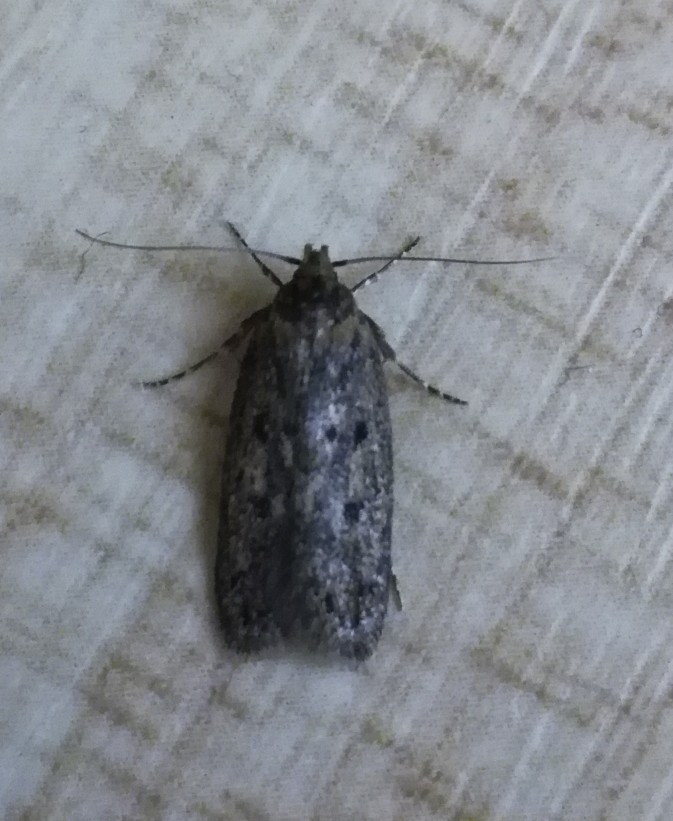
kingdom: Animalia
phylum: Arthropoda
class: Insecta
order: Lepidoptera
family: Oecophoridae
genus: Hofmannophila
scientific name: Hofmannophila pseudospretella
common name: Brown house moth
